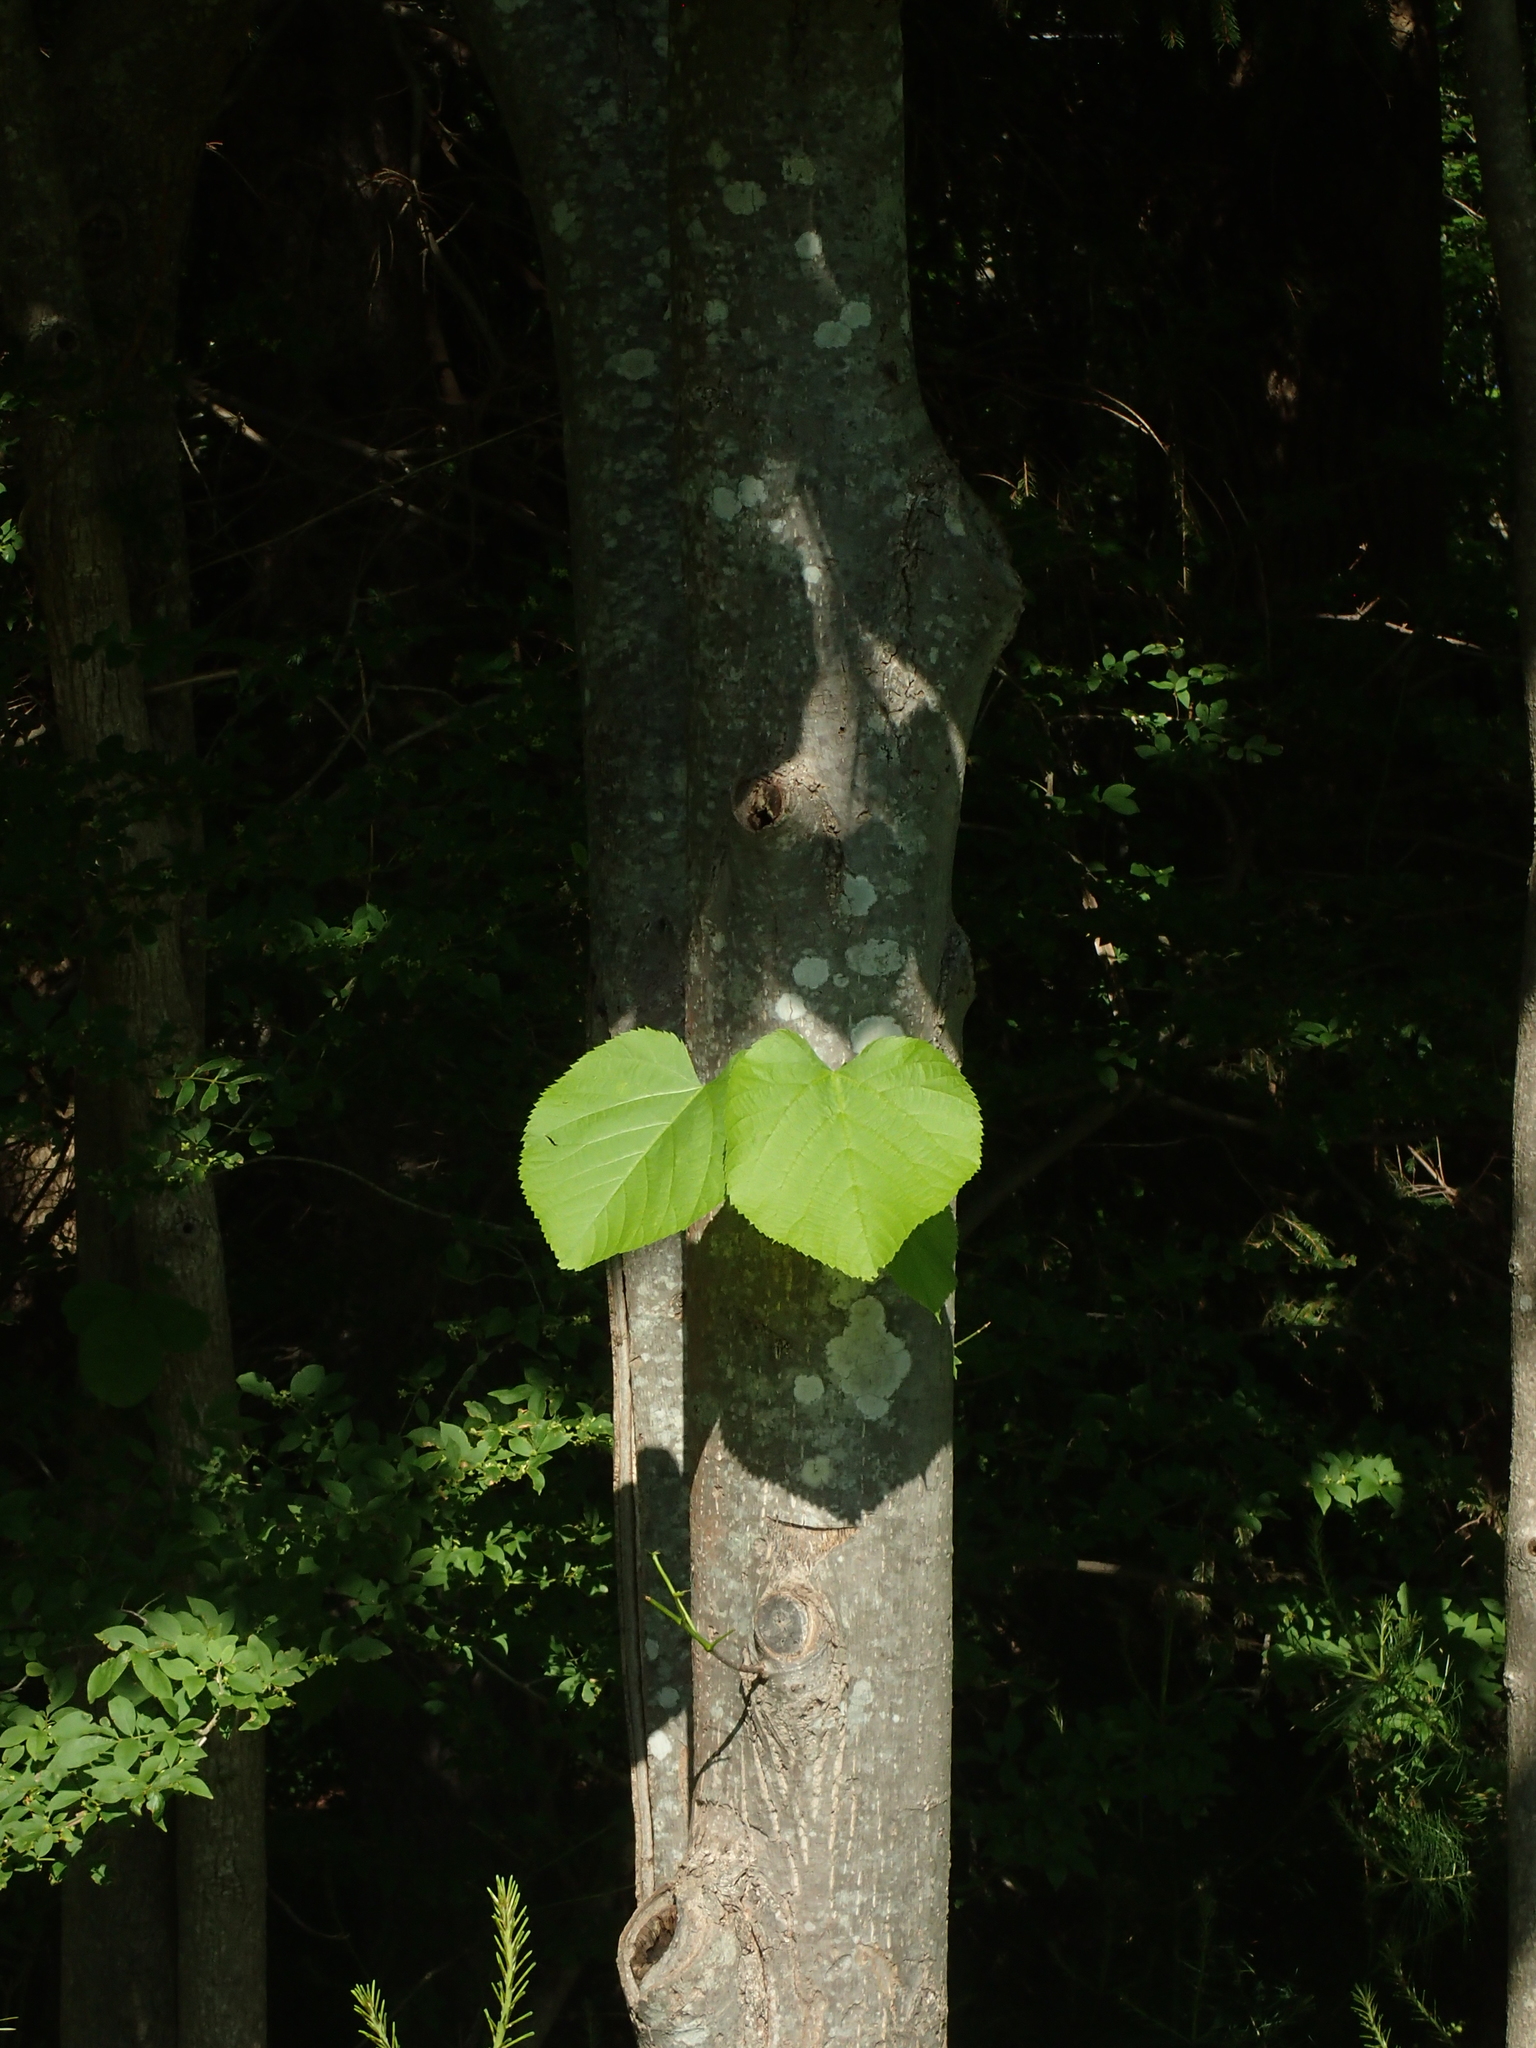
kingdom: Plantae
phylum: Tracheophyta
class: Magnoliopsida
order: Malvales
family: Malvaceae
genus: Tilia
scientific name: Tilia americana
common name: Basswood
